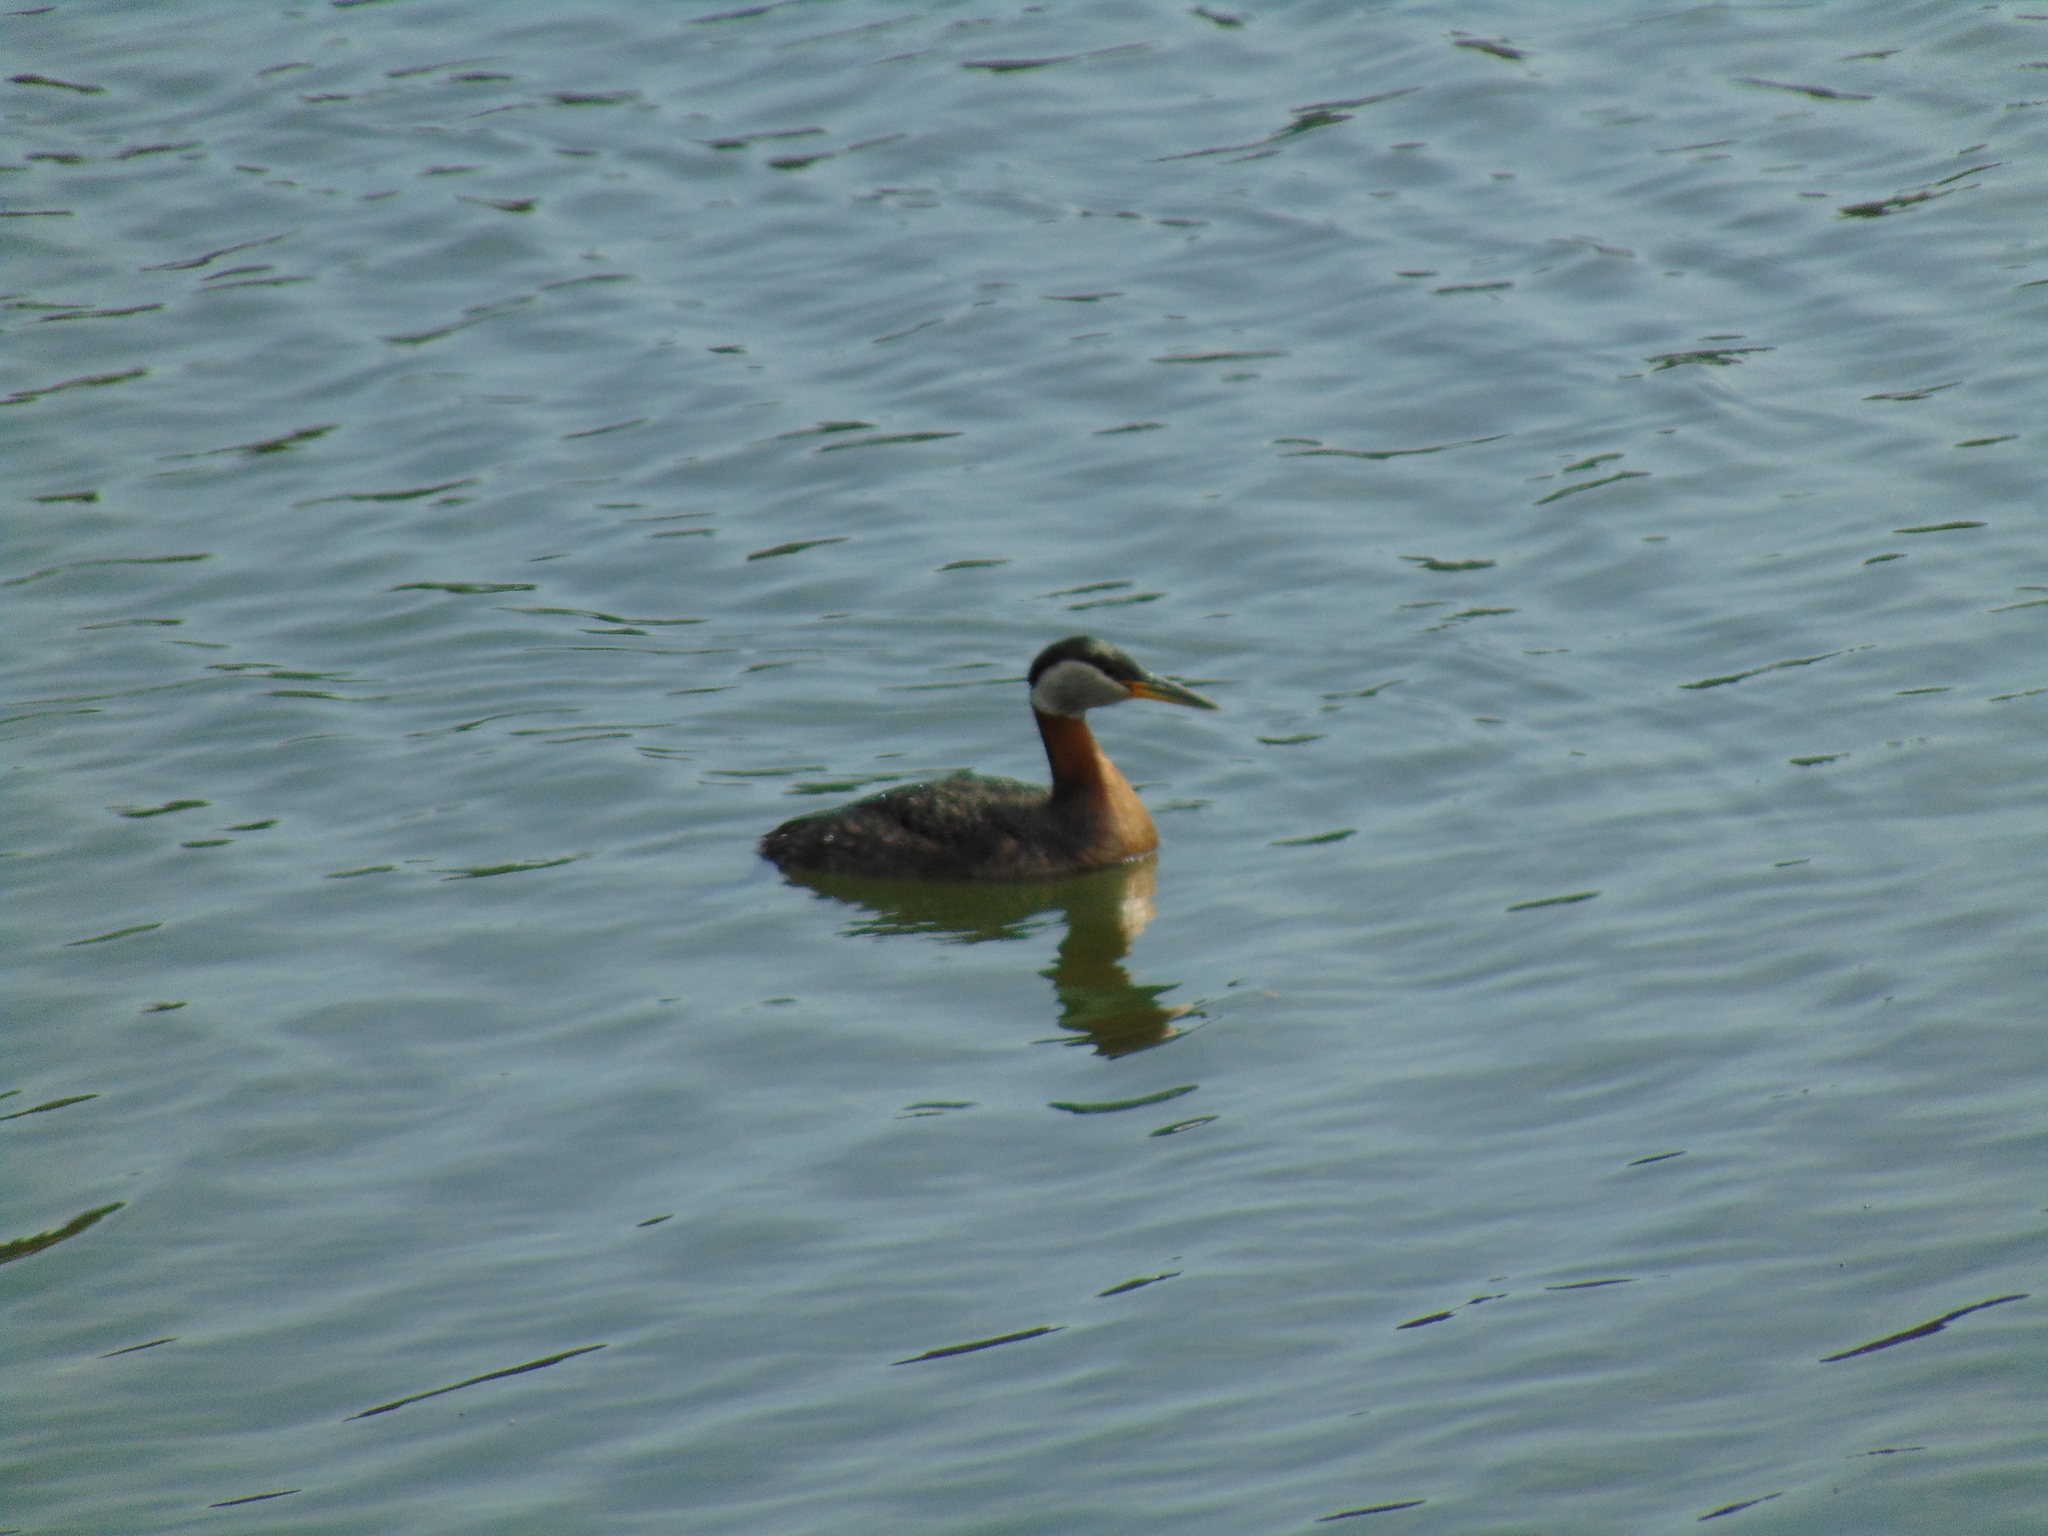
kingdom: Animalia
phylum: Chordata
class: Aves
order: Podicipediformes
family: Podicipedidae
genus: Podiceps
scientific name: Podiceps grisegena
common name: Red-necked grebe
